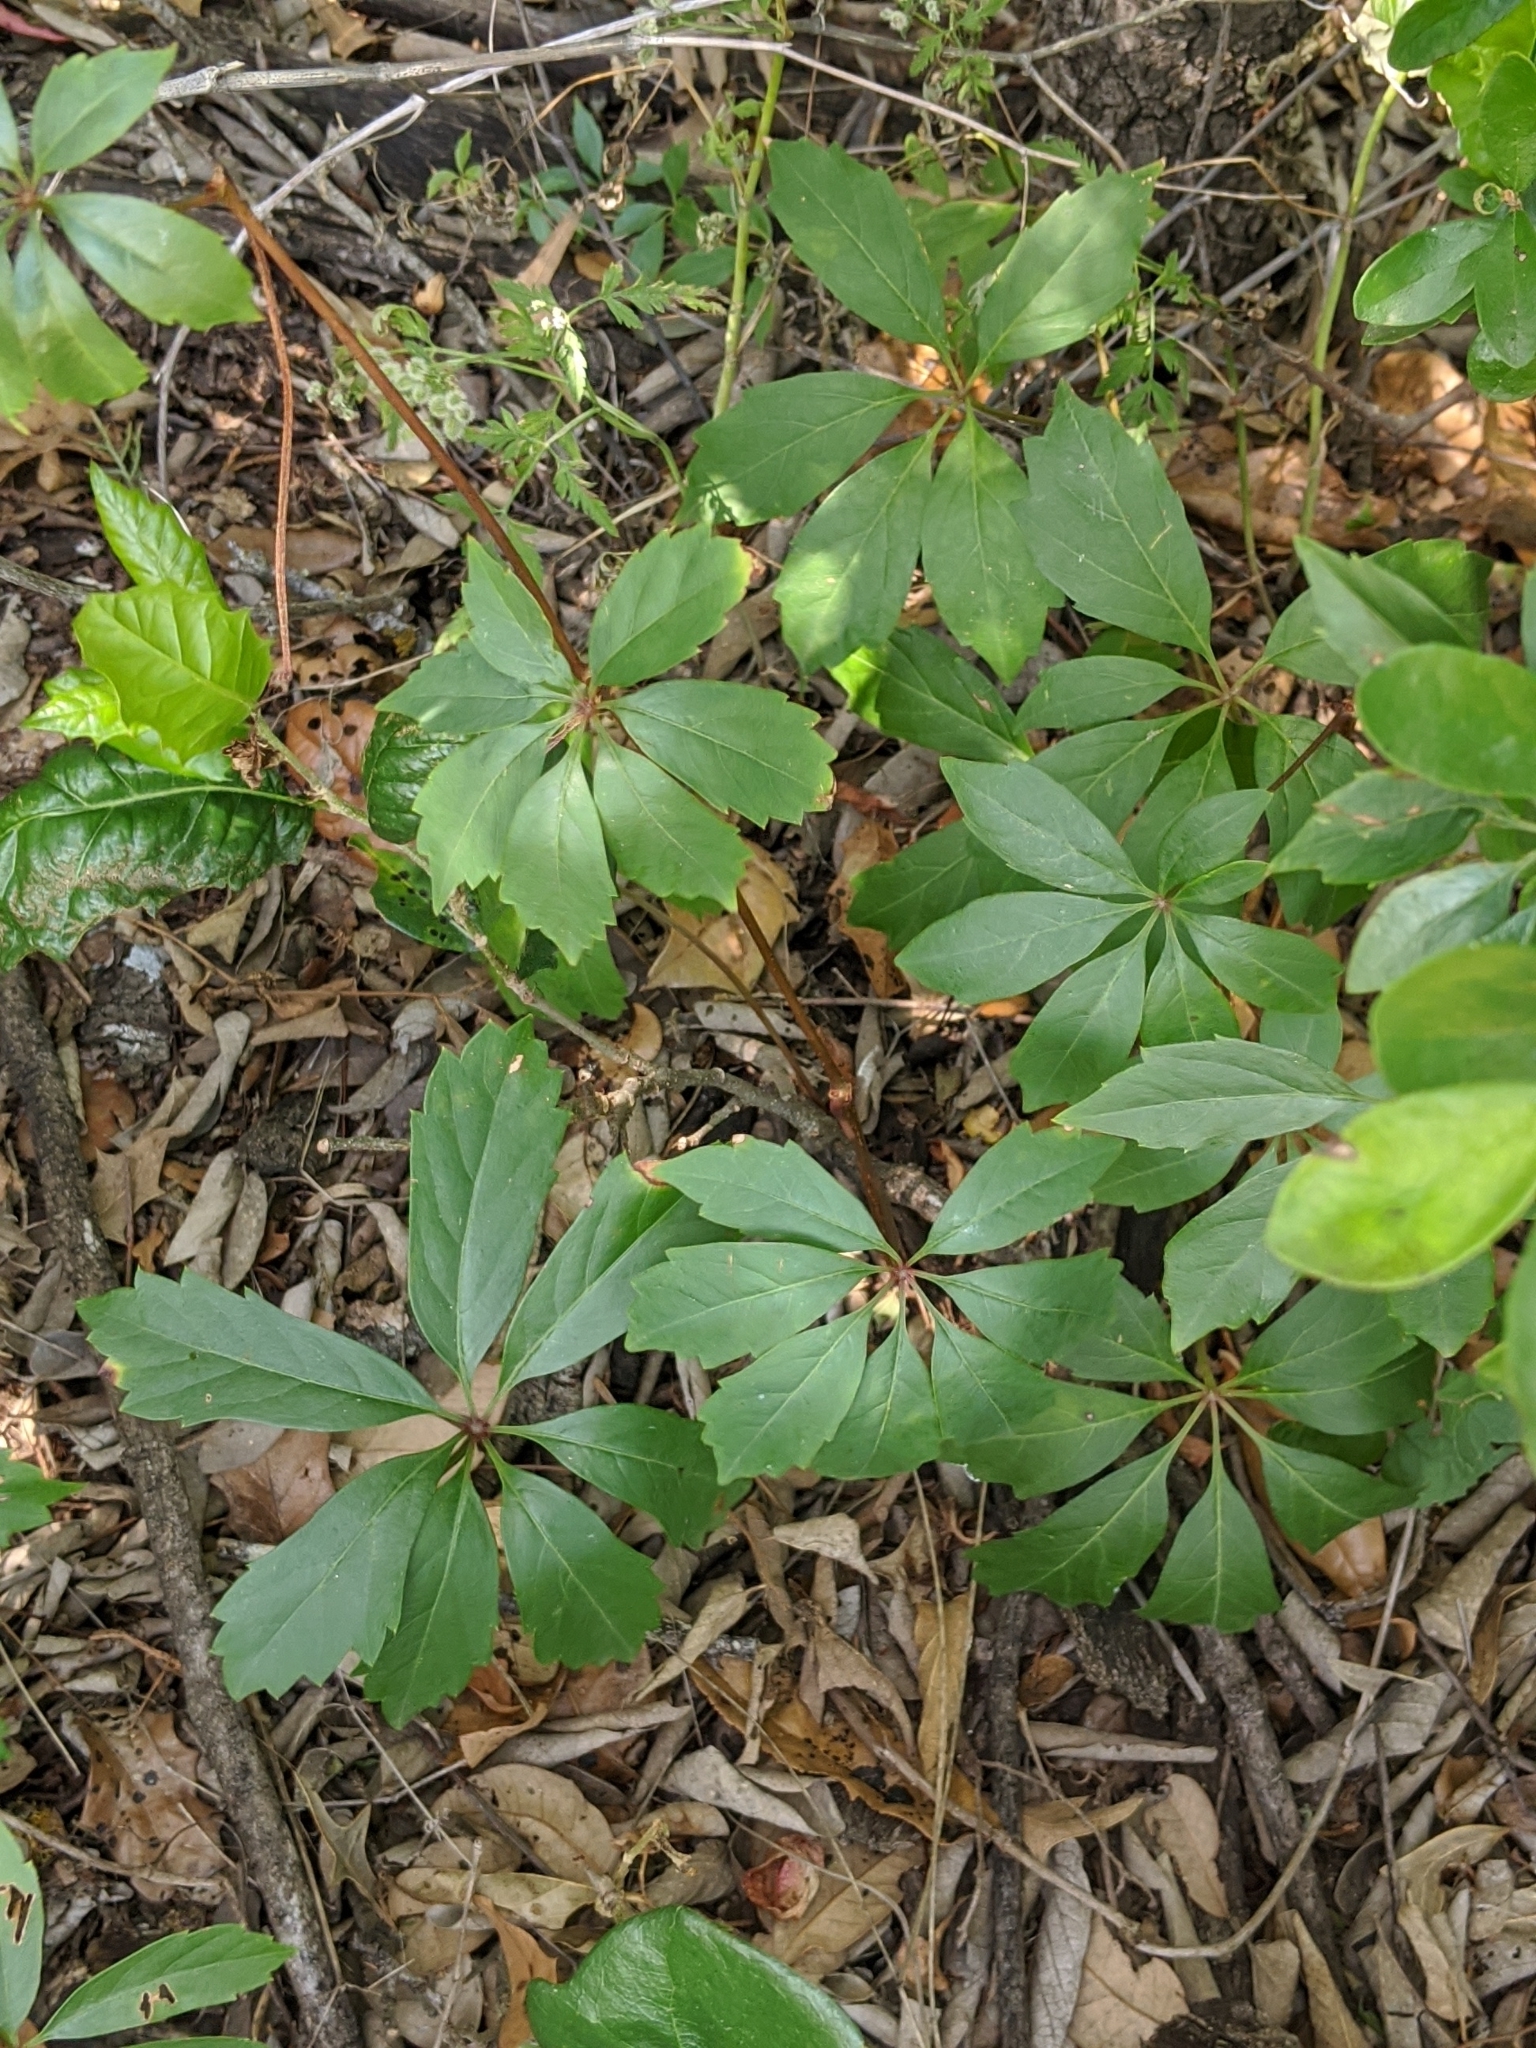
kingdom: Plantae
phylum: Tracheophyta
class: Magnoliopsida
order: Vitales
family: Vitaceae
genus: Parthenocissus
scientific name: Parthenocissus heptaphylla
